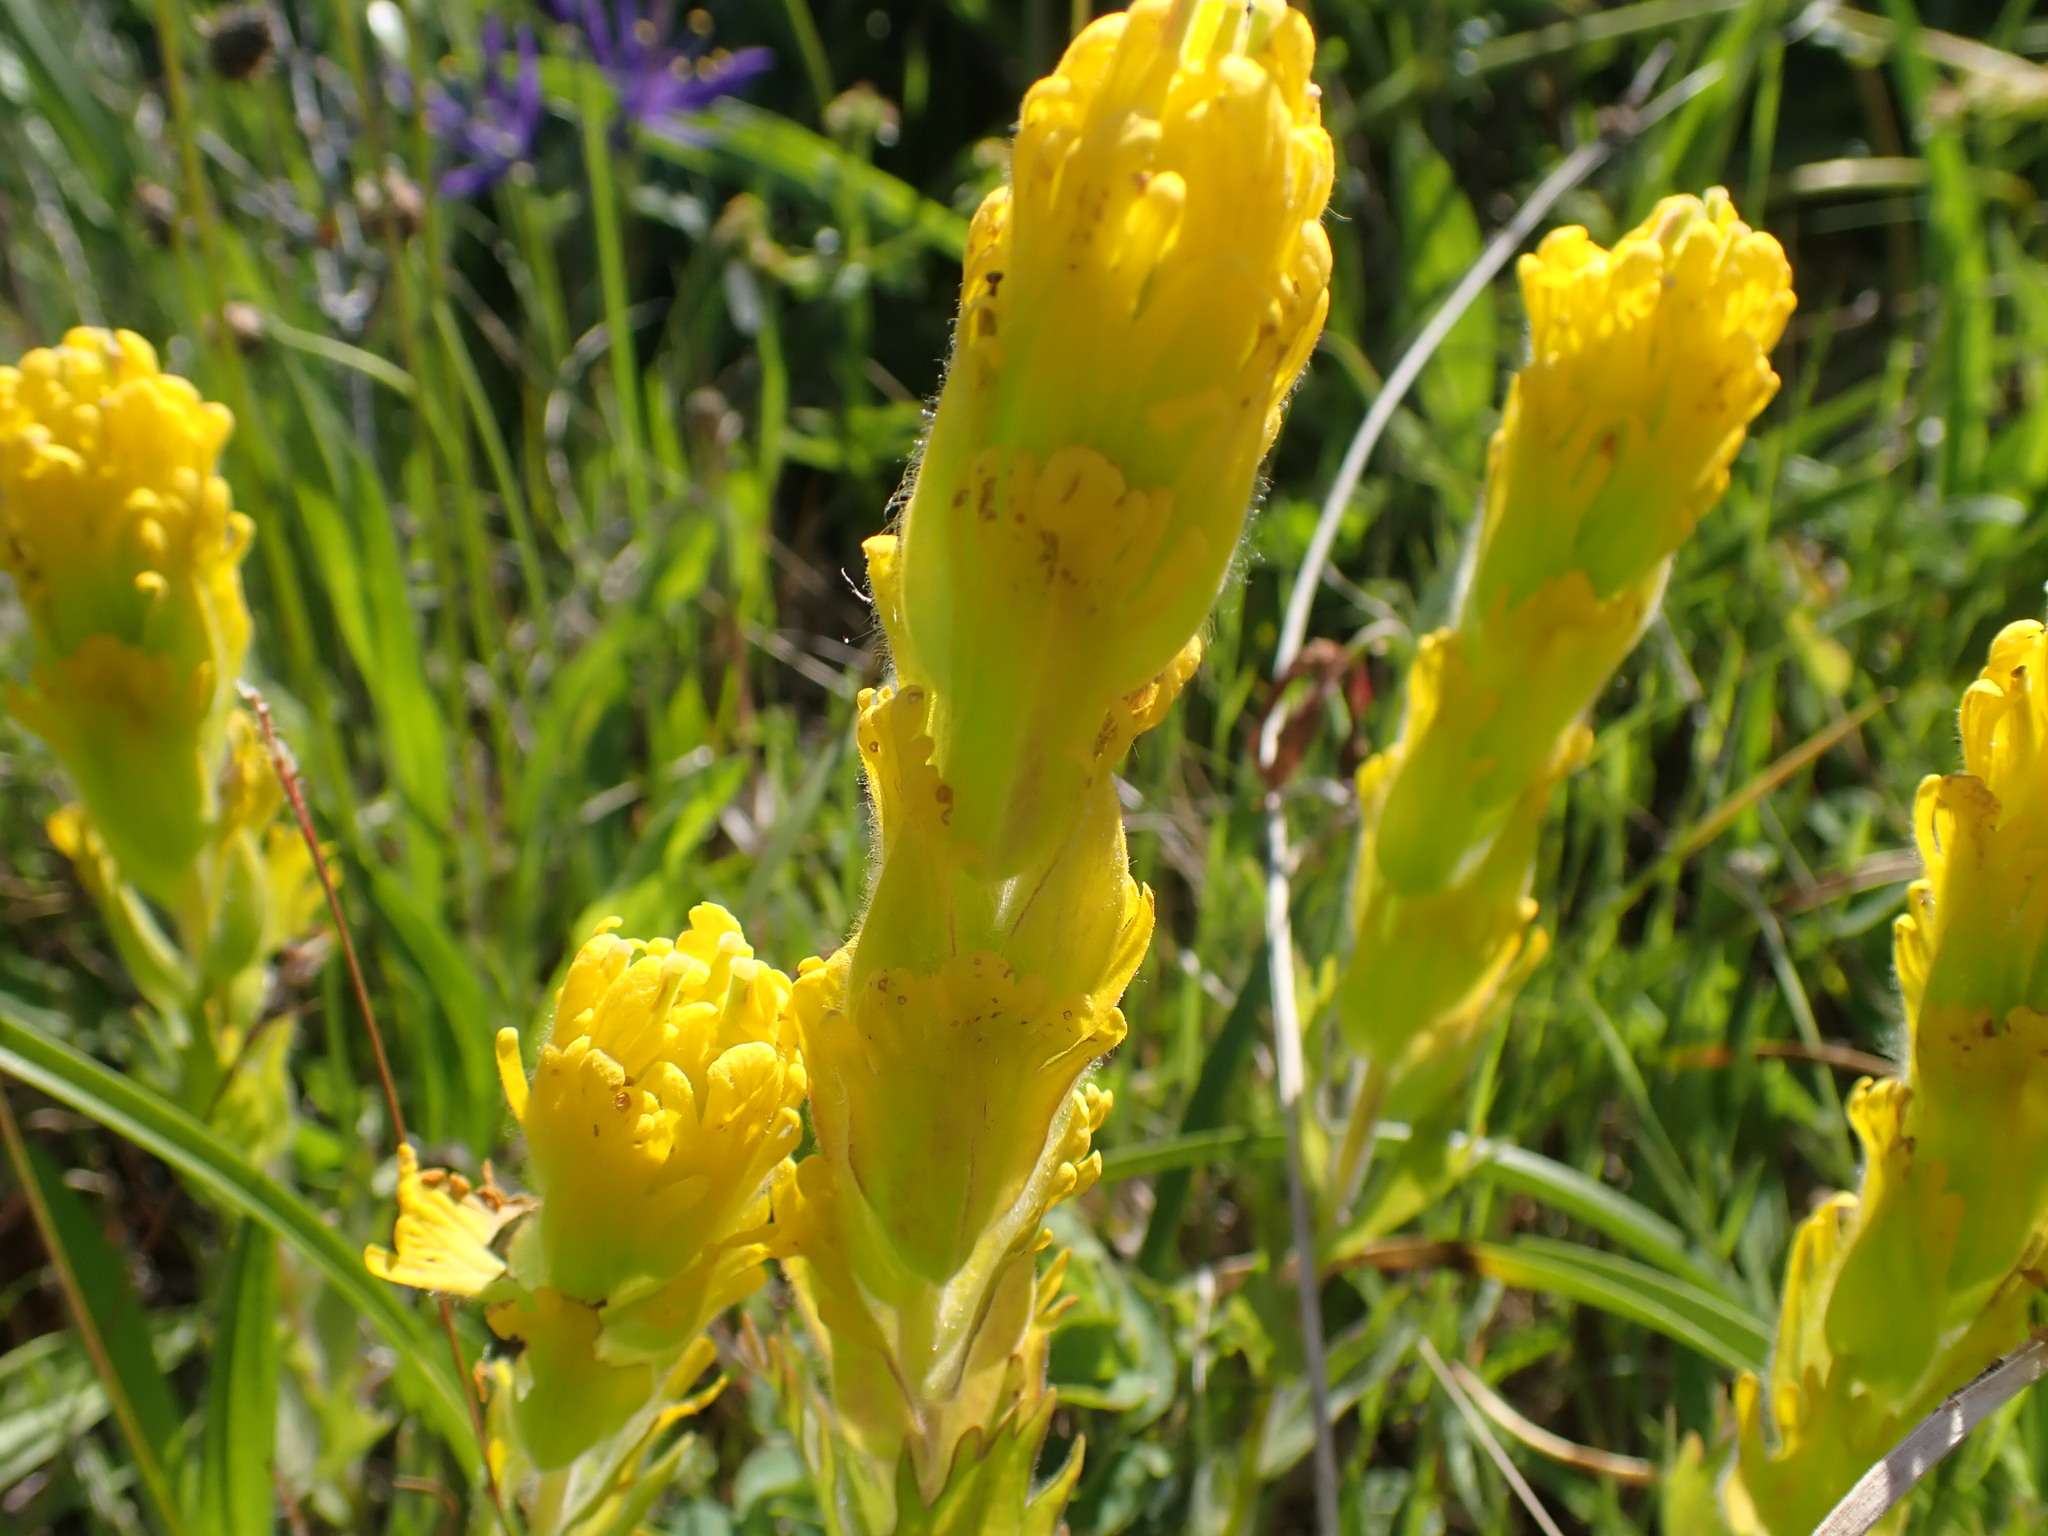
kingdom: Plantae
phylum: Tracheophyta
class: Magnoliopsida
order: Lamiales
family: Orobanchaceae
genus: Castilleja
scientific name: Castilleja levisecta
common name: Golden paintbrush
